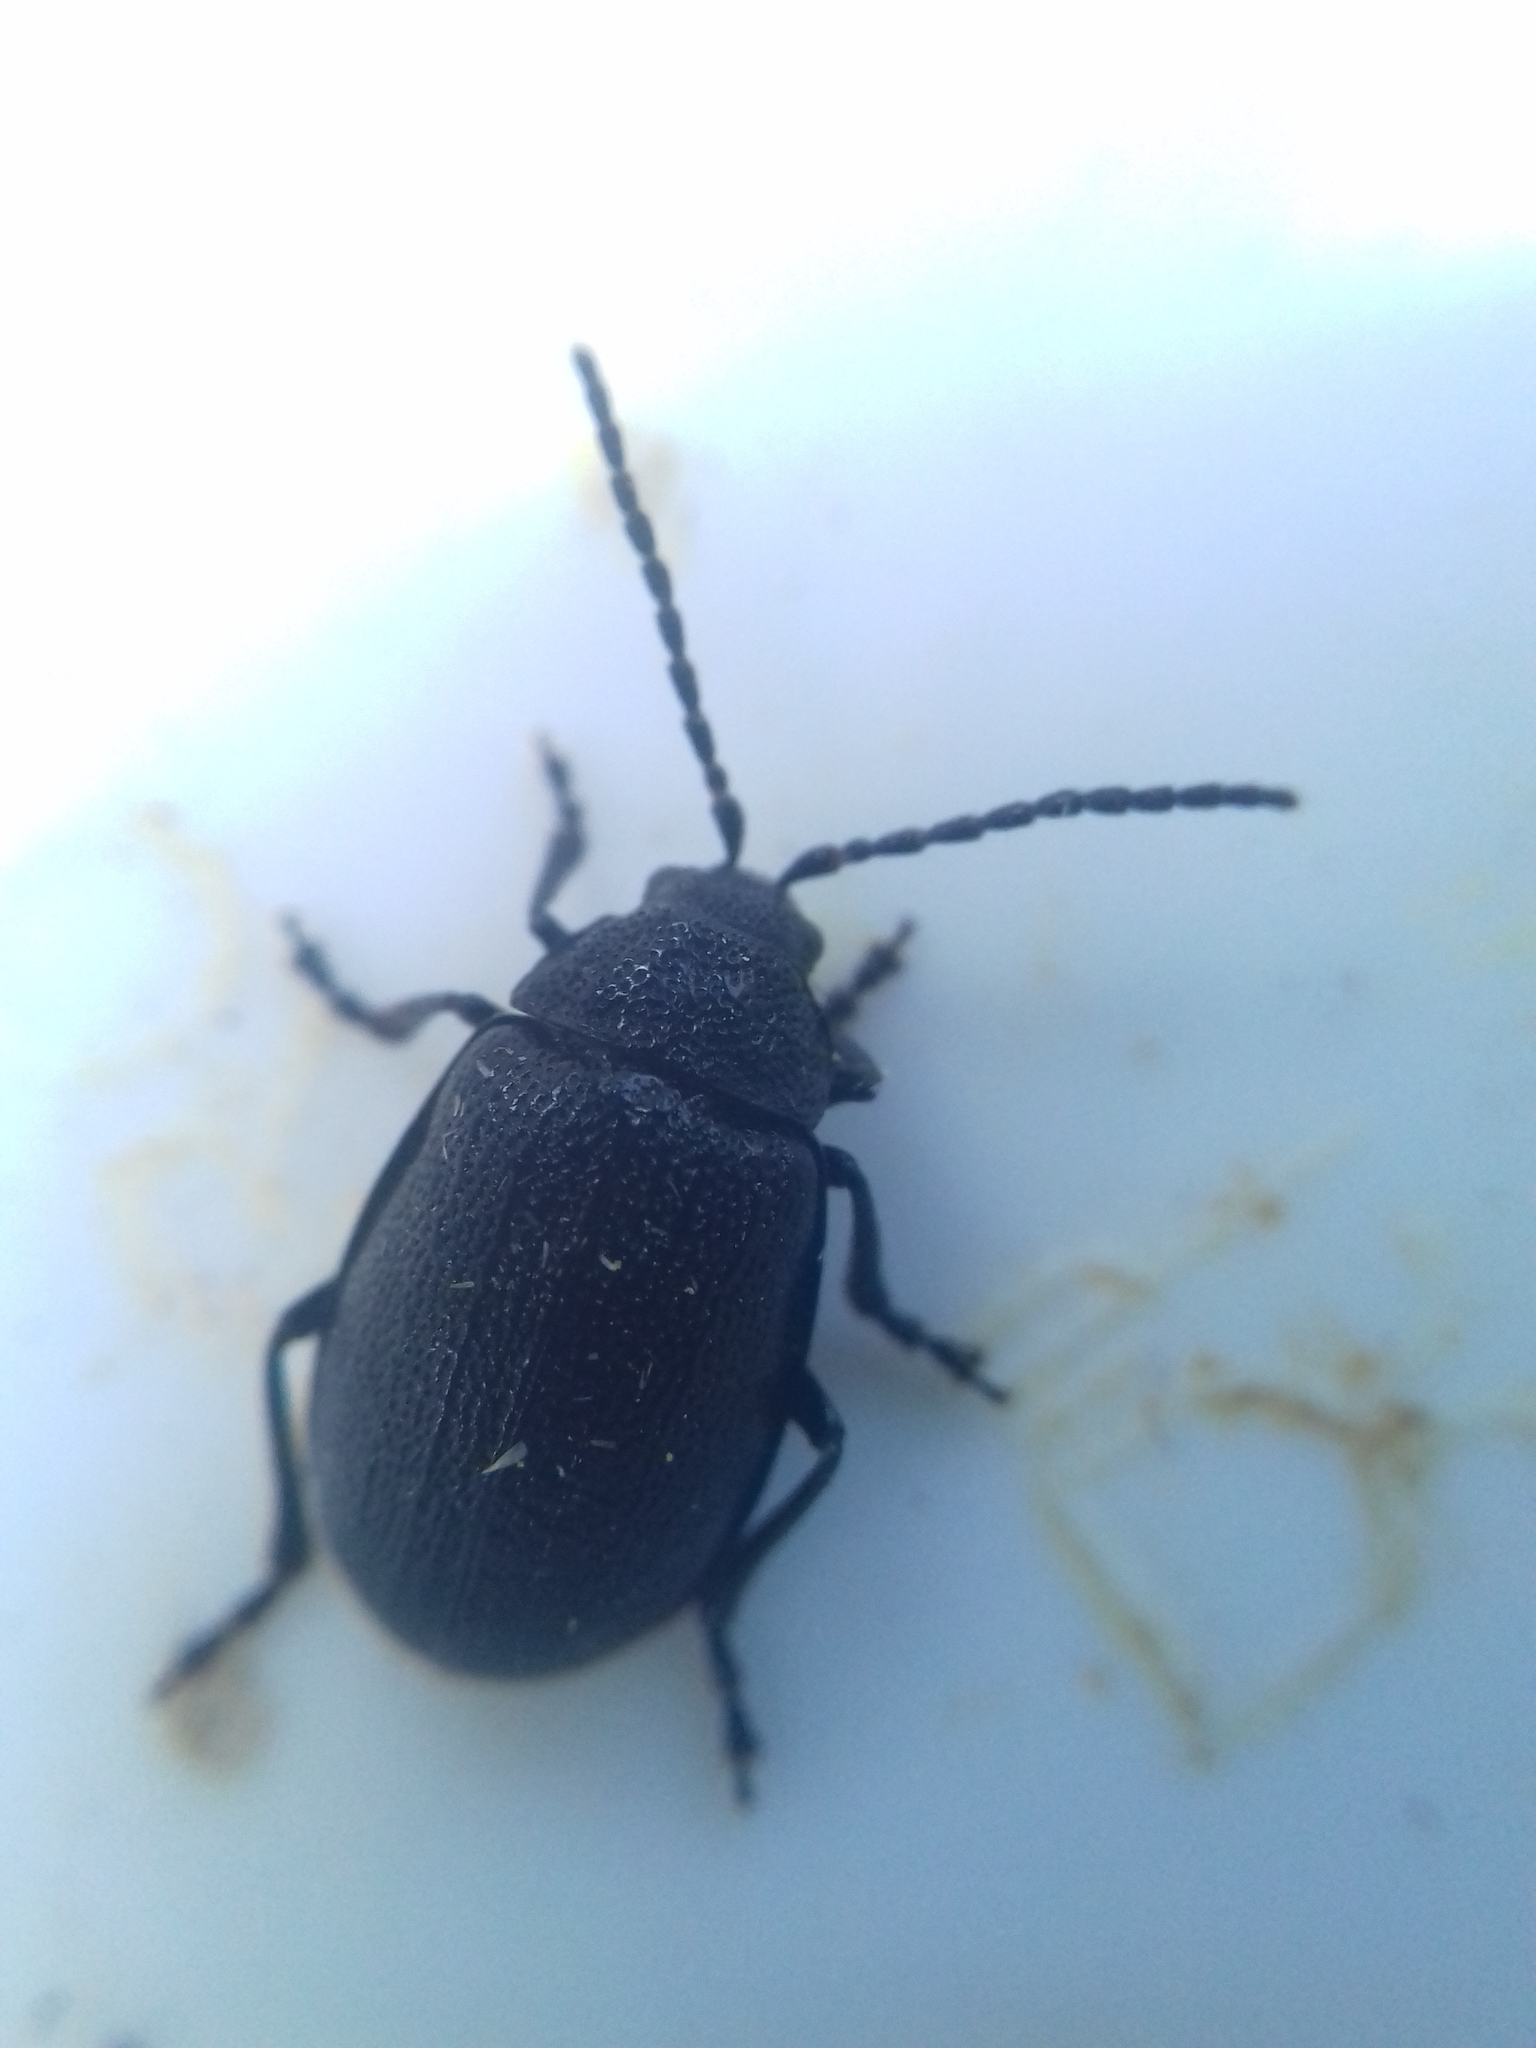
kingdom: Animalia
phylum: Arthropoda
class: Insecta
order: Coleoptera
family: Chrysomelidae
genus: Galeruca
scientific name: Galeruca tanaceti
